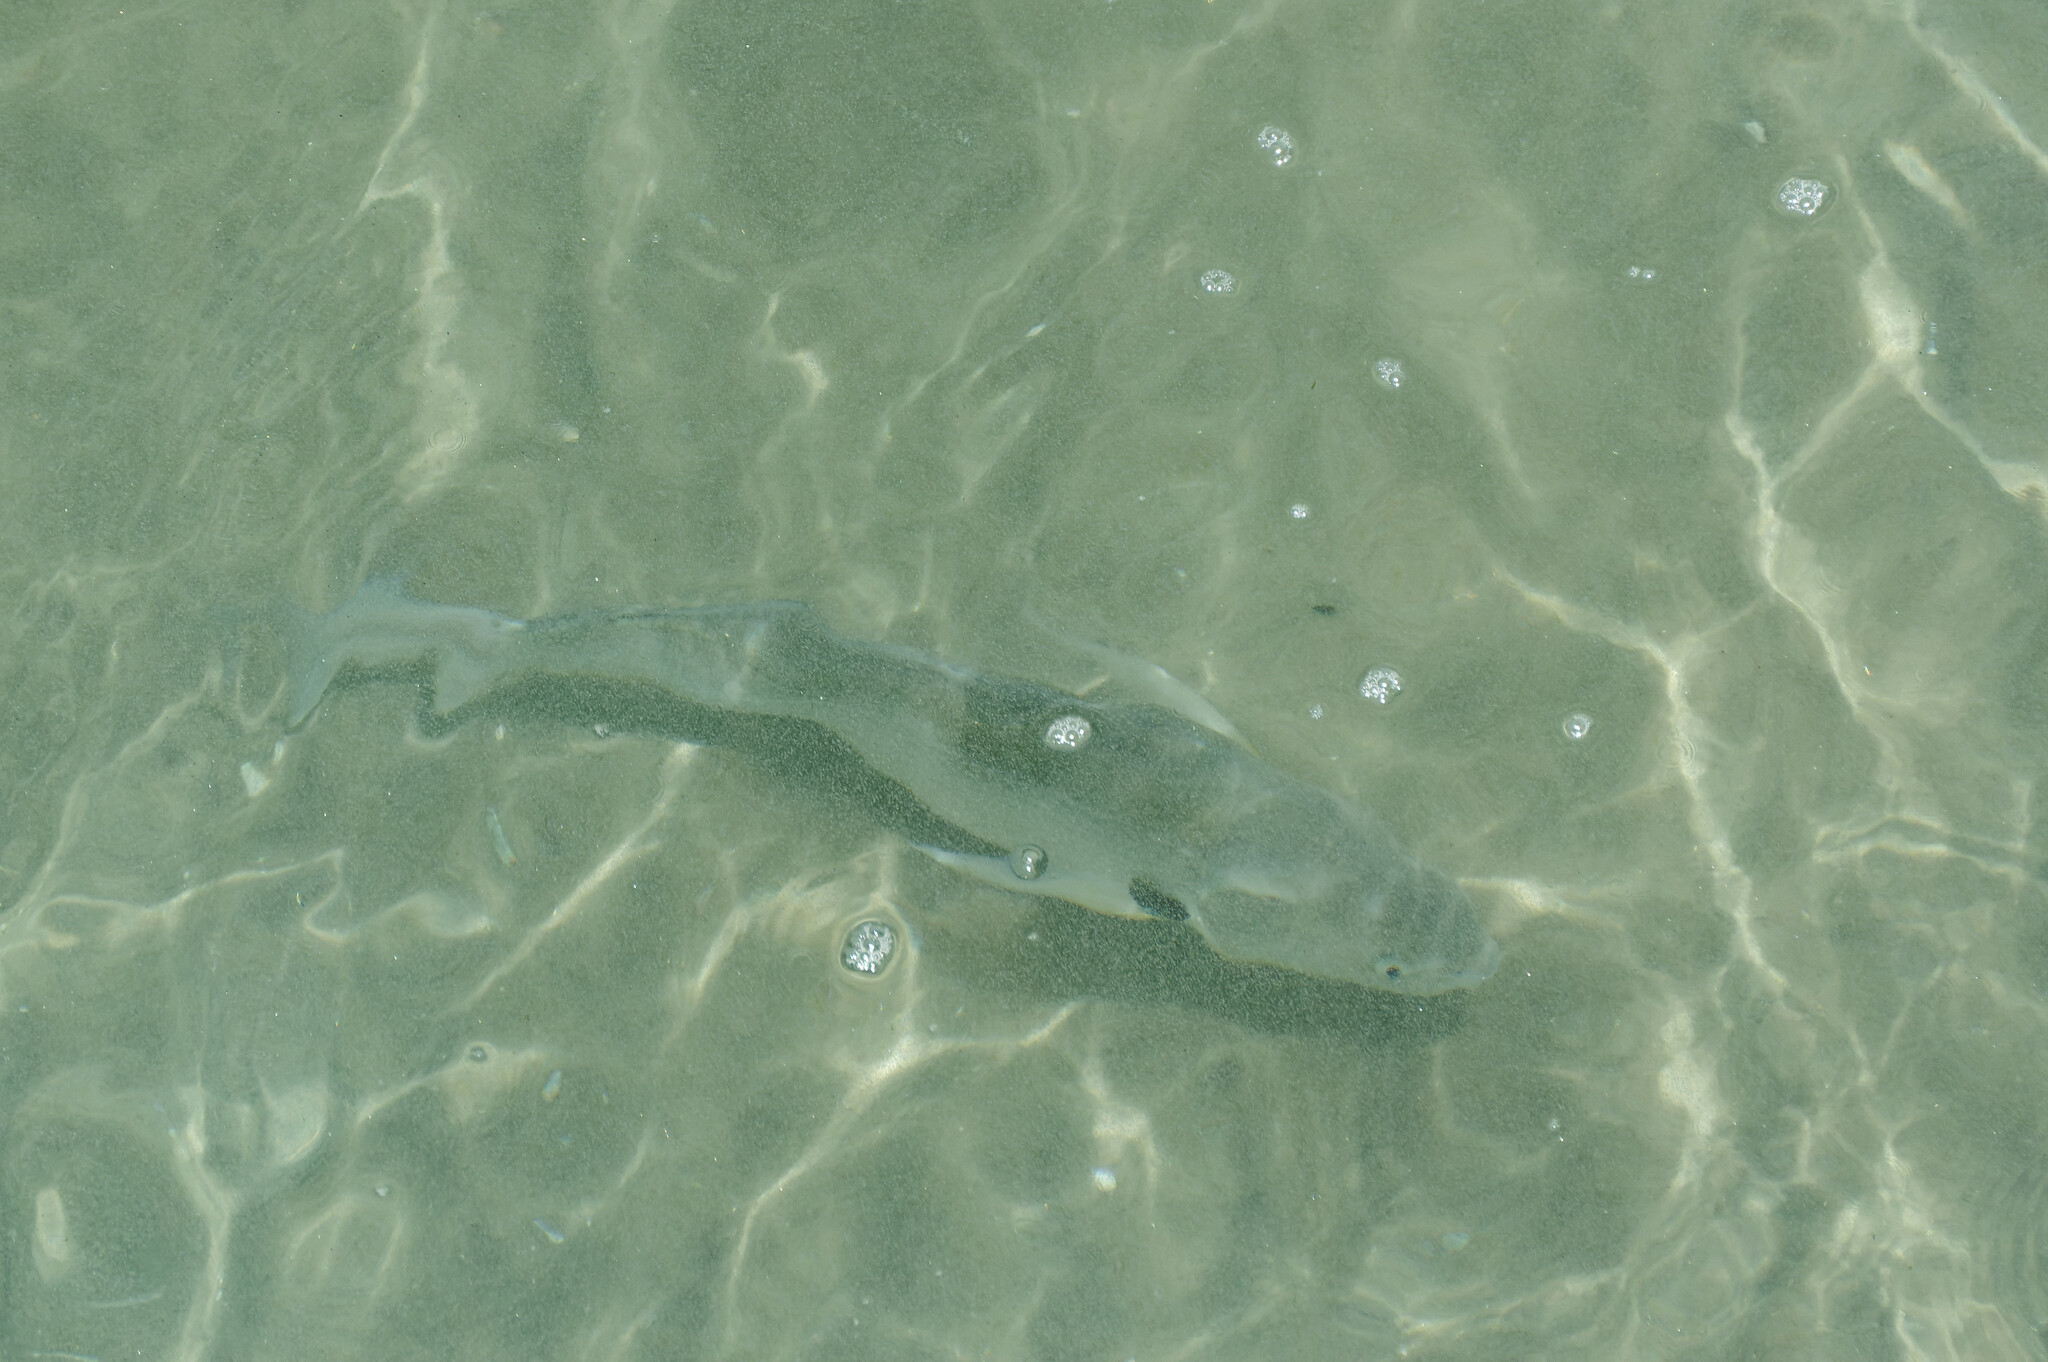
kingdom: Animalia
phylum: Chordata
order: Perciformes
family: Sciaenidae
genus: Roncador
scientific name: Roncador stearnsii
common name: Croaker
